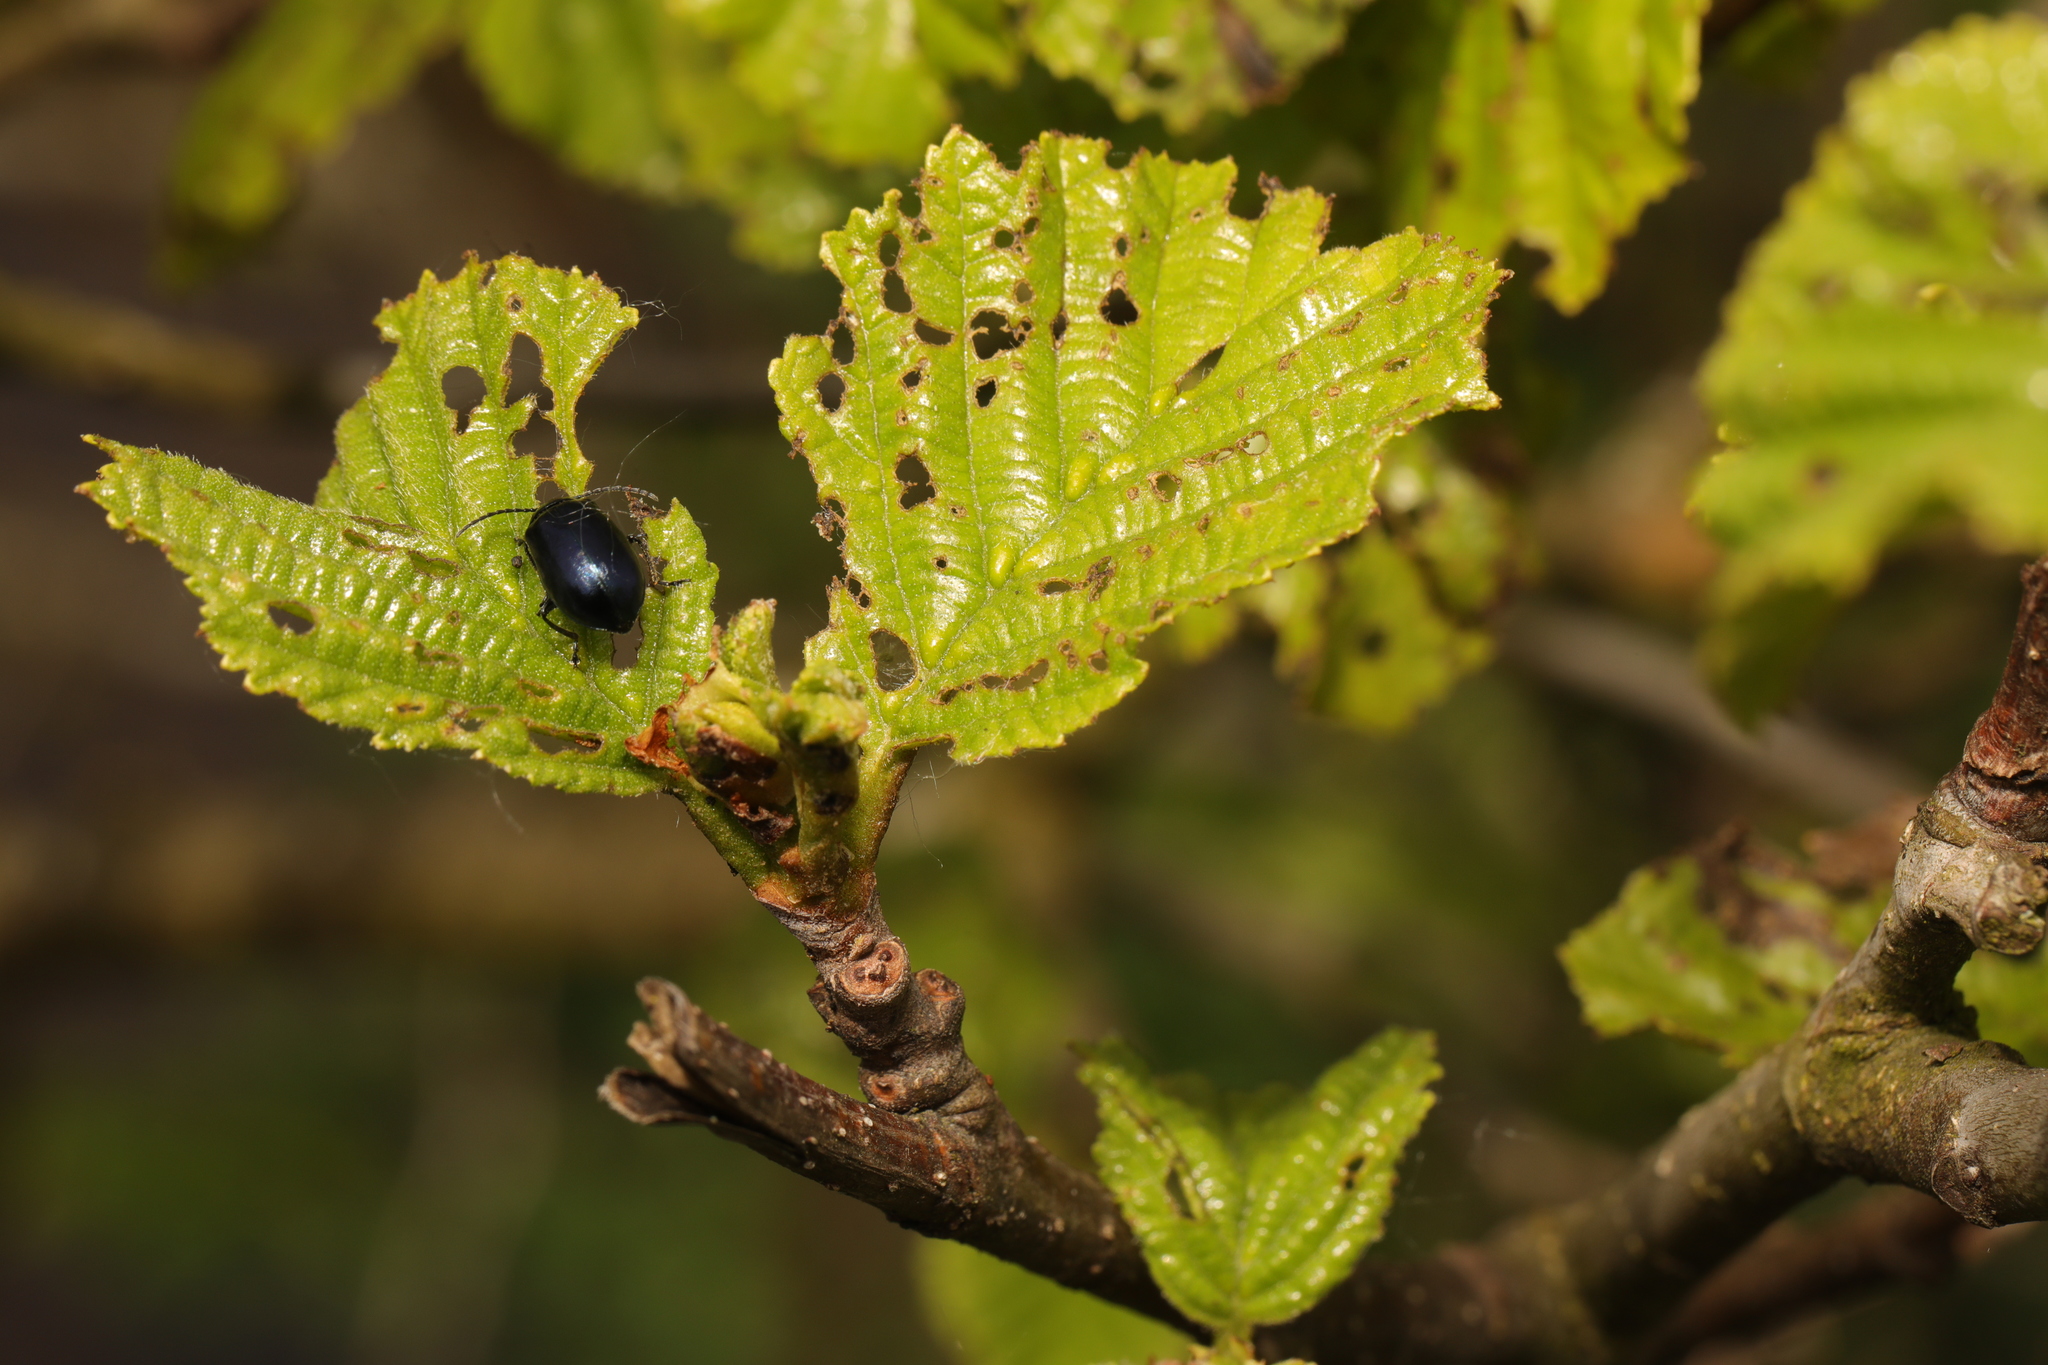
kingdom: Plantae
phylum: Tracheophyta
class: Magnoliopsida
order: Fagales
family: Betulaceae
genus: Alnus
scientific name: Alnus glutinosa
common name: Black alder
